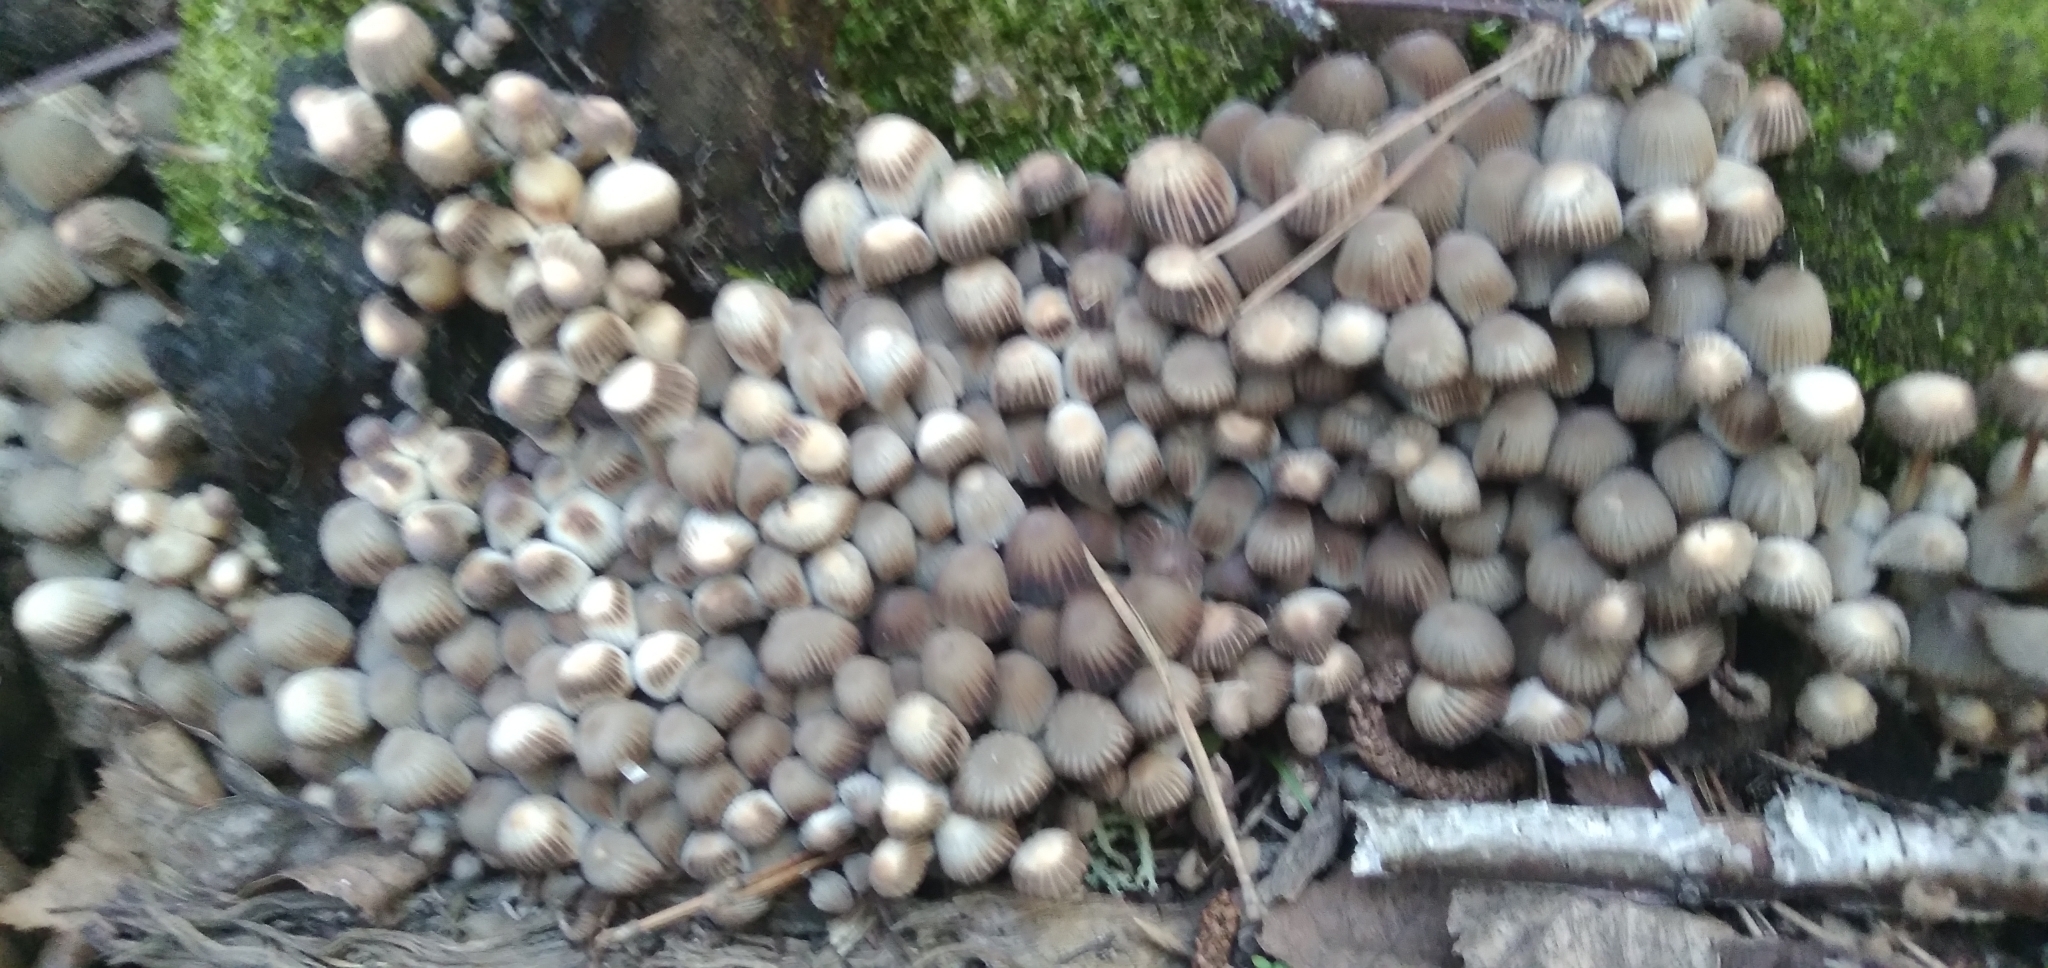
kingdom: Fungi
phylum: Basidiomycota
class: Agaricomycetes
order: Agaricales
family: Psathyrellaceae
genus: Coprinellus
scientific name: Coprinellus disseminatus
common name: Fairies' bonnets
